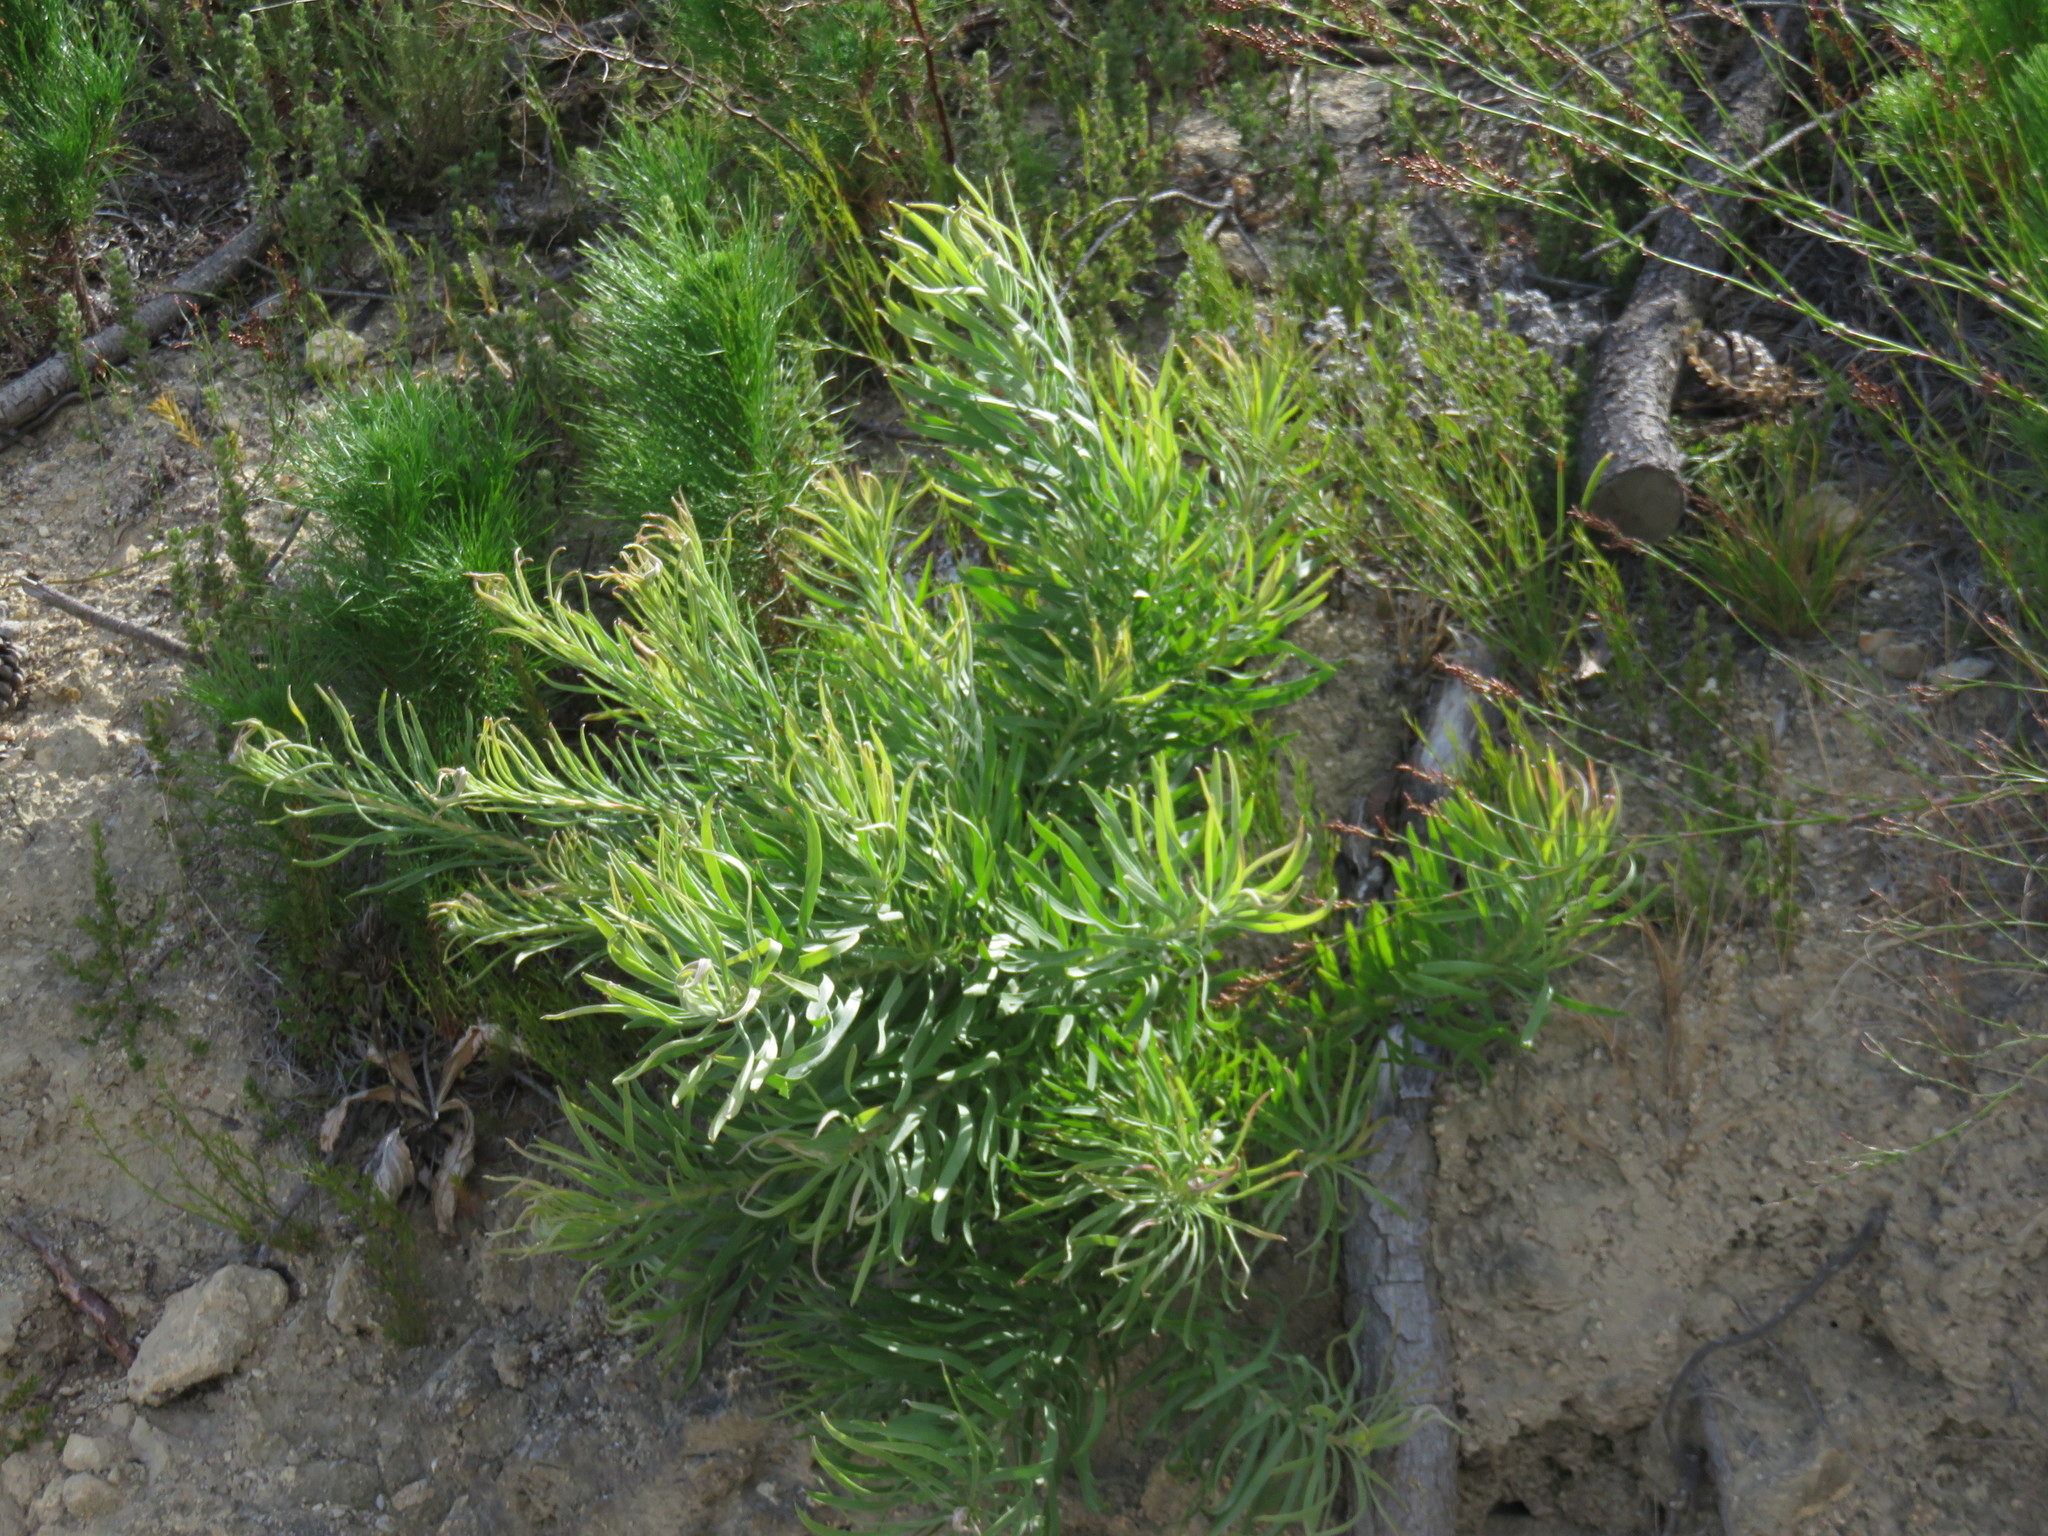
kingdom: Plantae
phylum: Tracheophyta
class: Magnoliopsida
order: Proteales
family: Proteaceae
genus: Leucospermum
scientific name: Leucospermum lineare
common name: Needle-leaf pincushion
